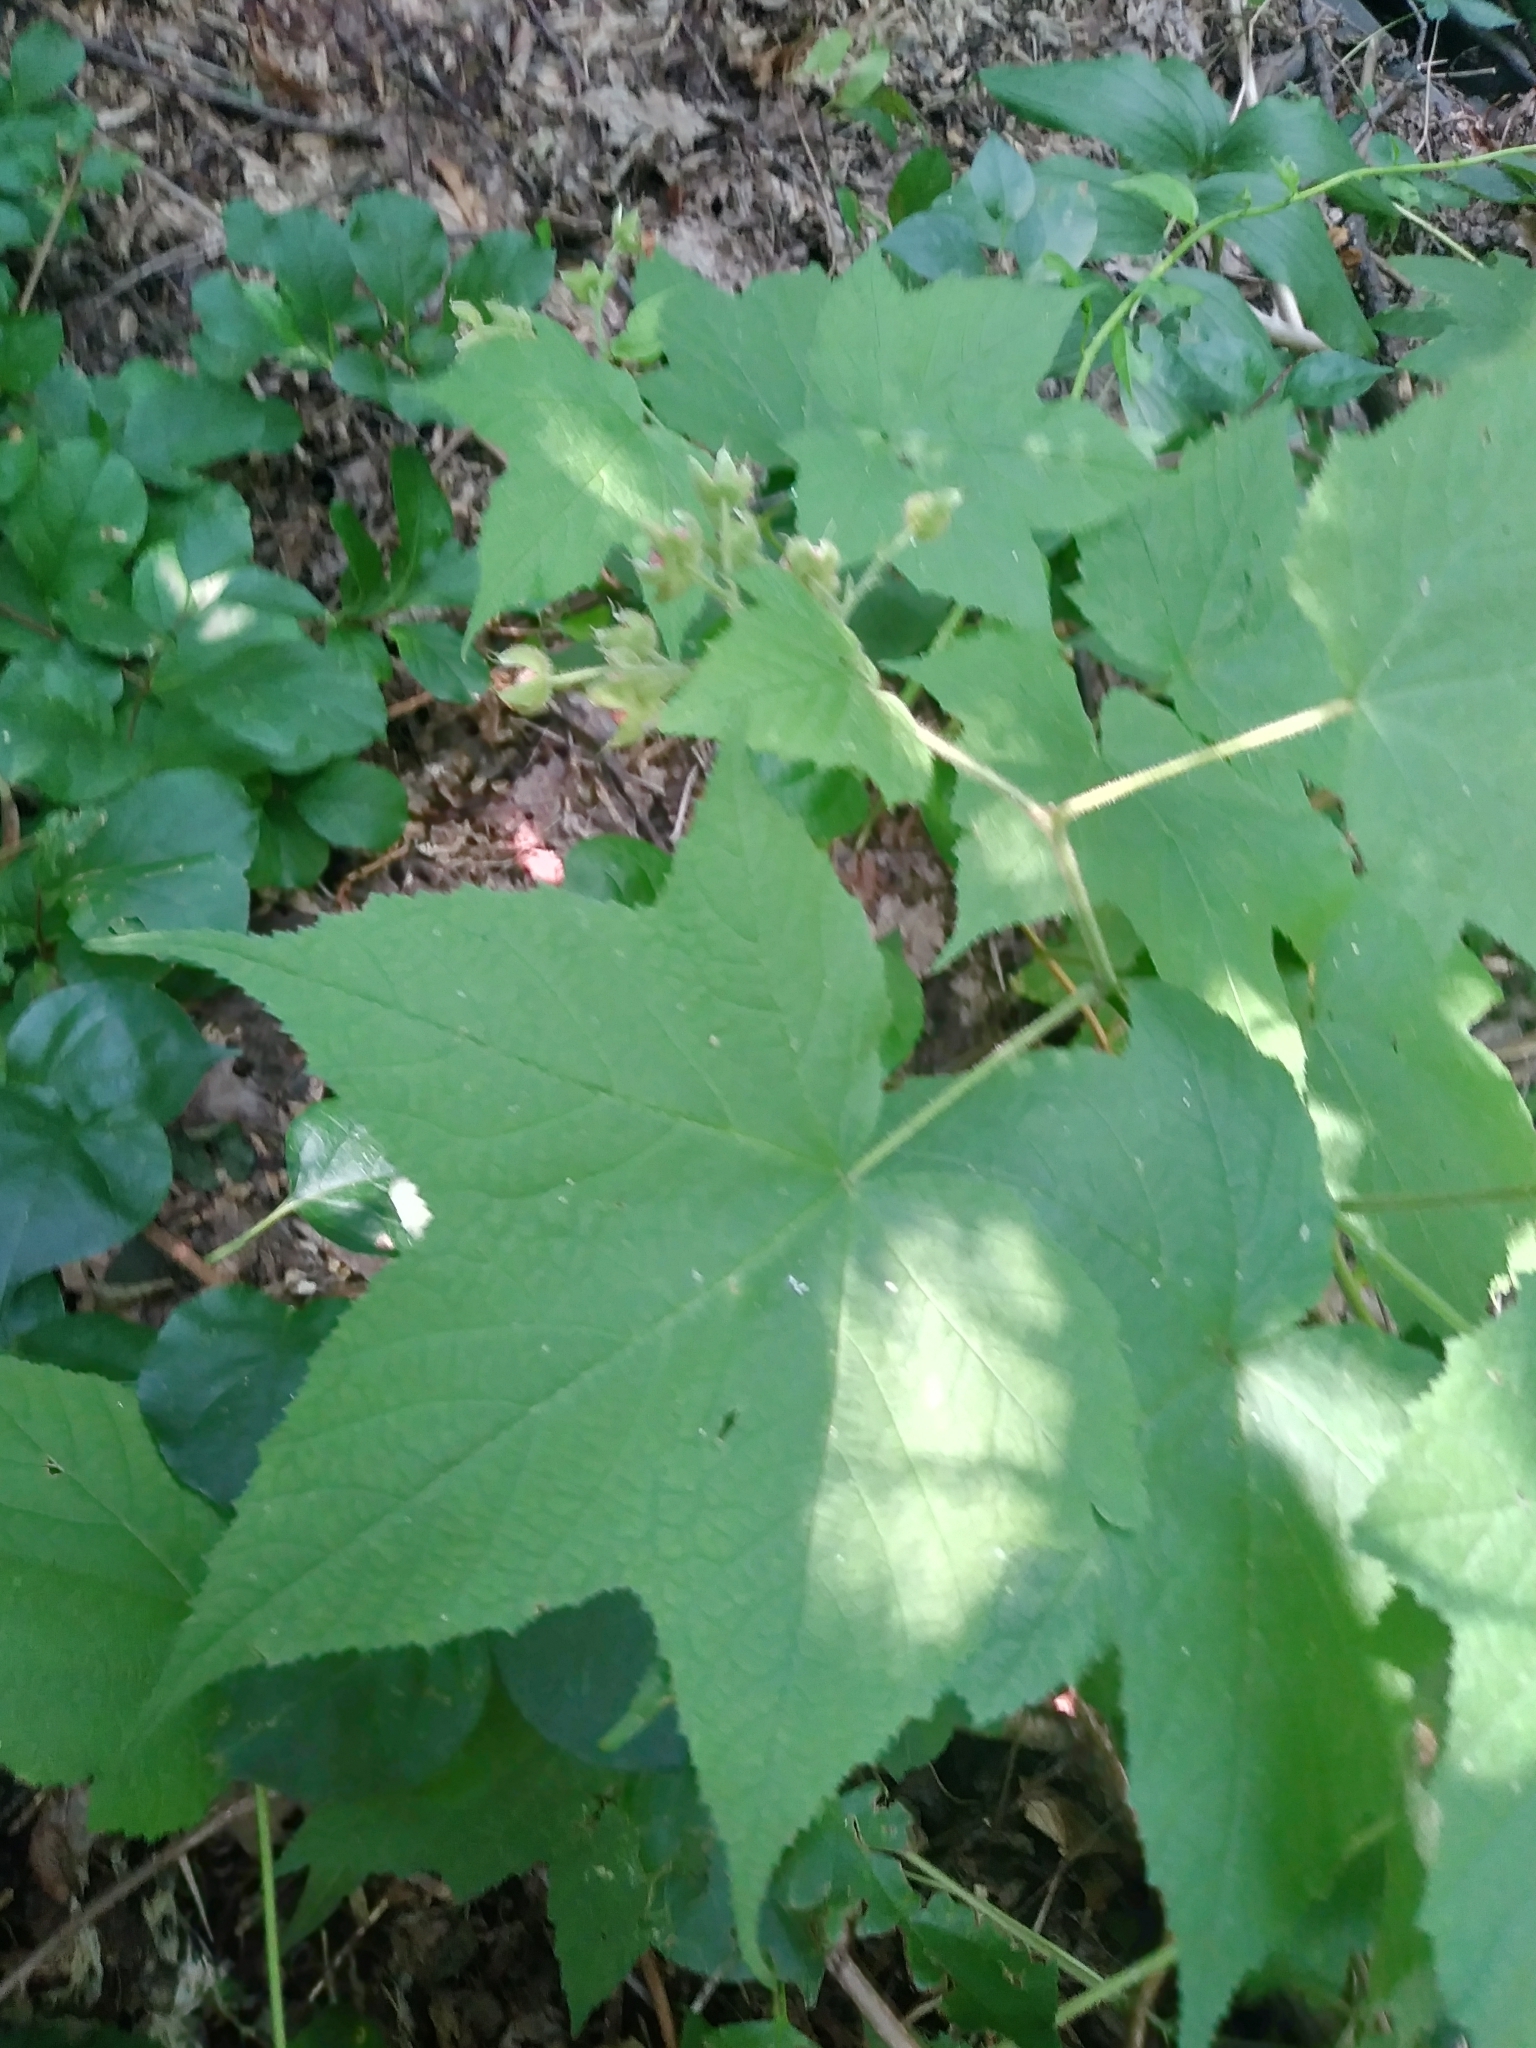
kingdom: Plantae
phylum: Tracheophyta
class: Magnoliopsida
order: Rosales
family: Rosaceae
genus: Rubus
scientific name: Rubus odoratus
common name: Purple-flowered raspberry
